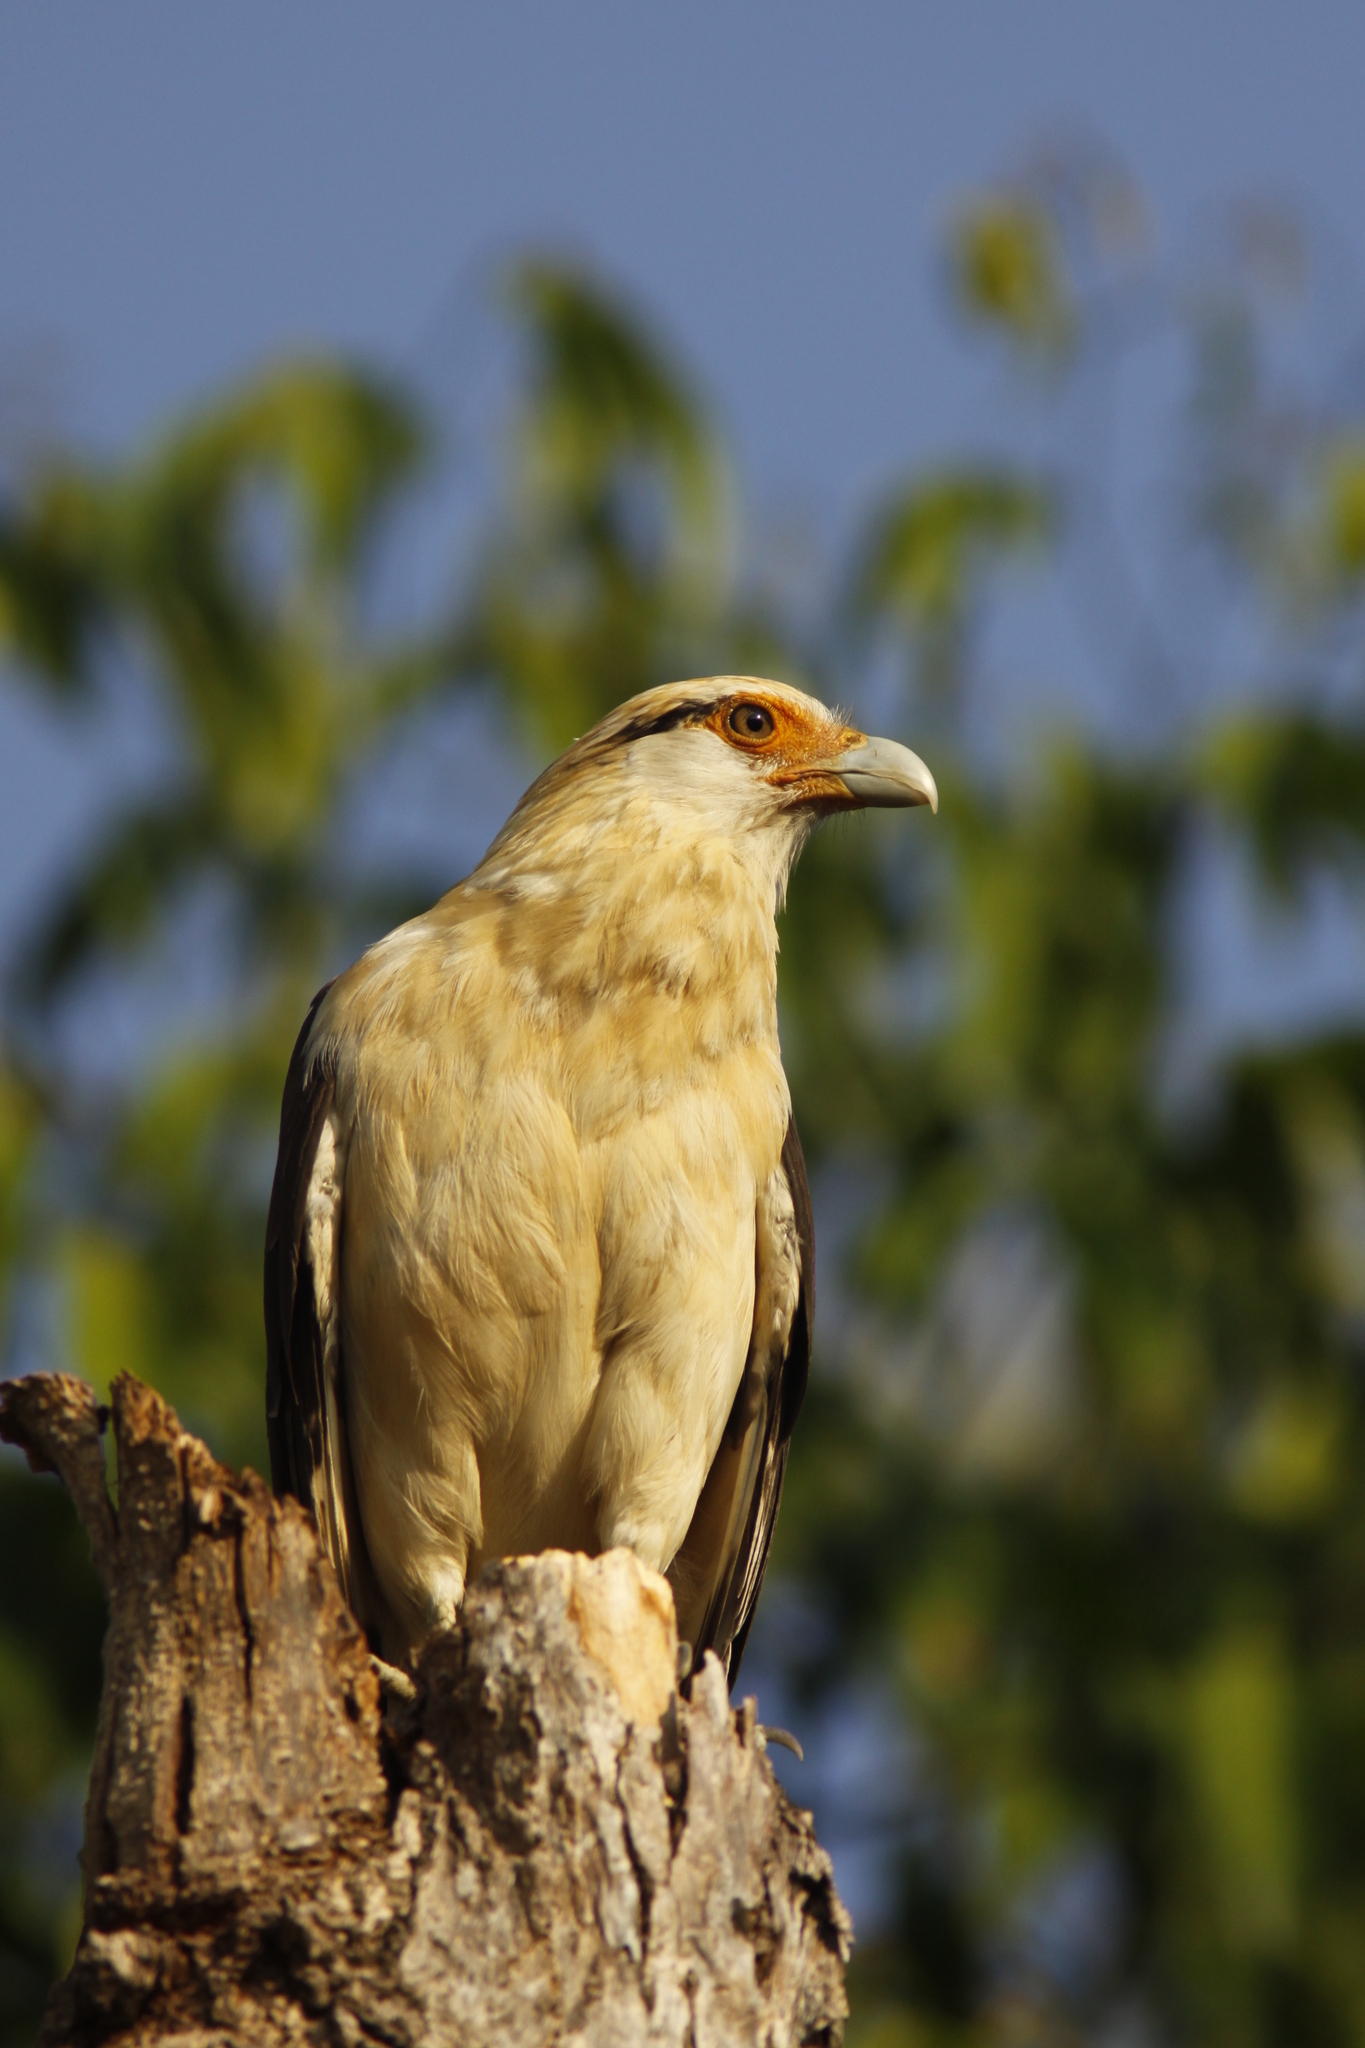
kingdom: Animalia
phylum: Chordata
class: Aves
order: Falconiformes
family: Falconidae
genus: Daptrius
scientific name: Daptrius
